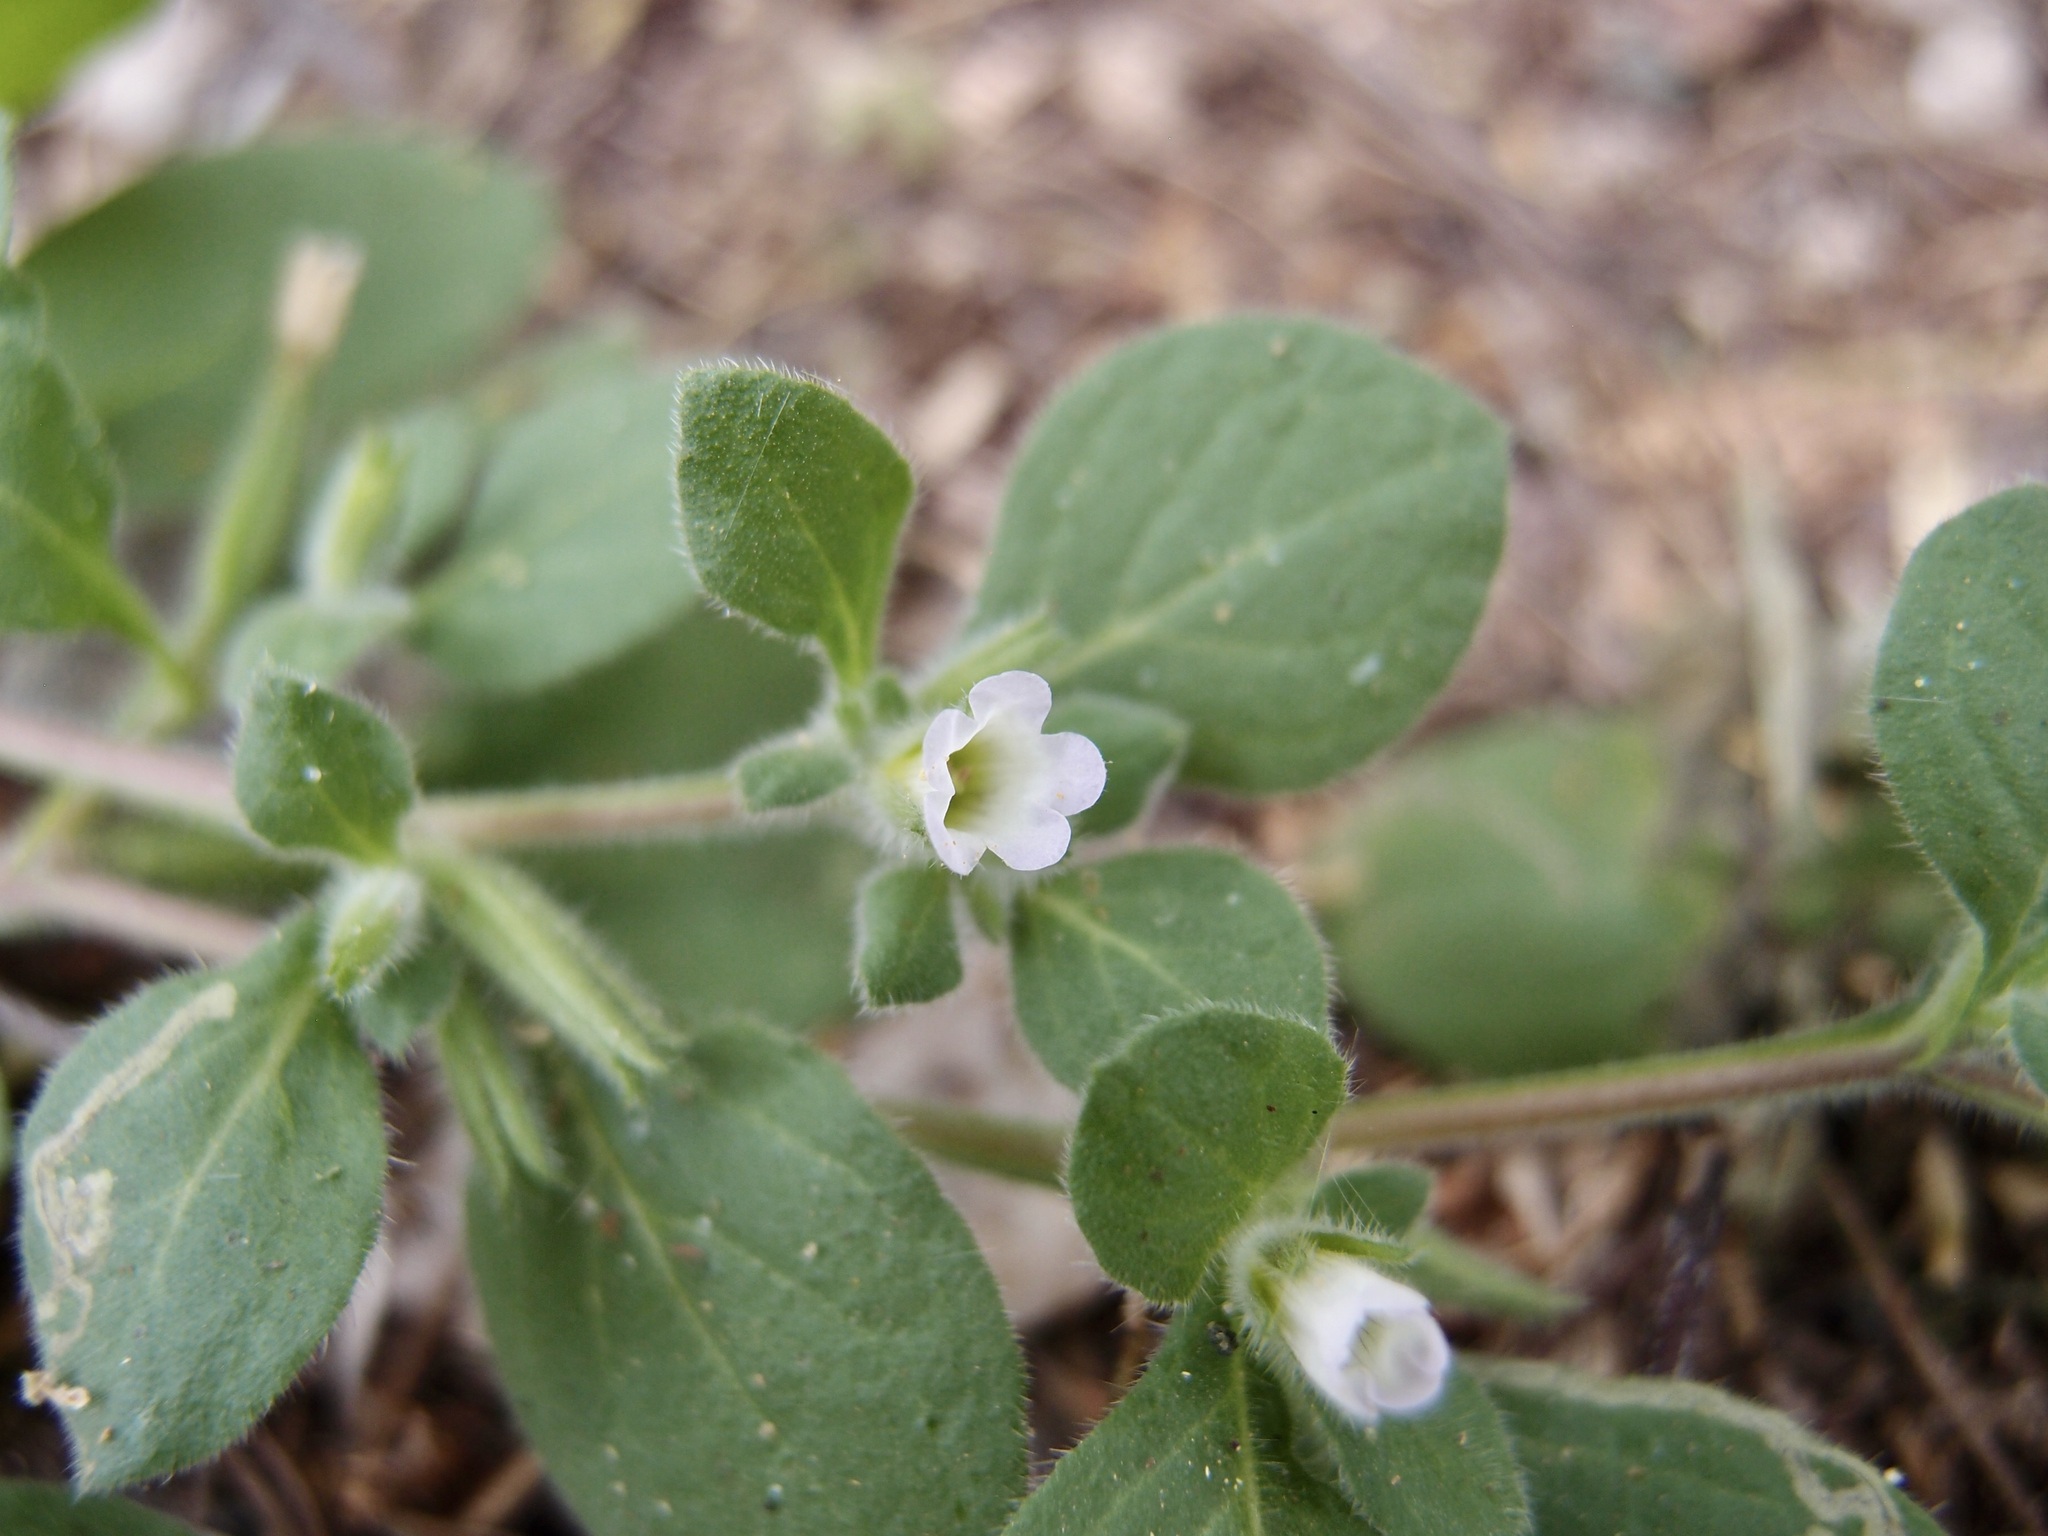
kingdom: Plantae
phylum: Tracheophyta
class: Magnoliopsida
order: Boraginales
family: Namaceae
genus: Nama
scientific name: Nama jamaicensis
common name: Jamaicanweed
